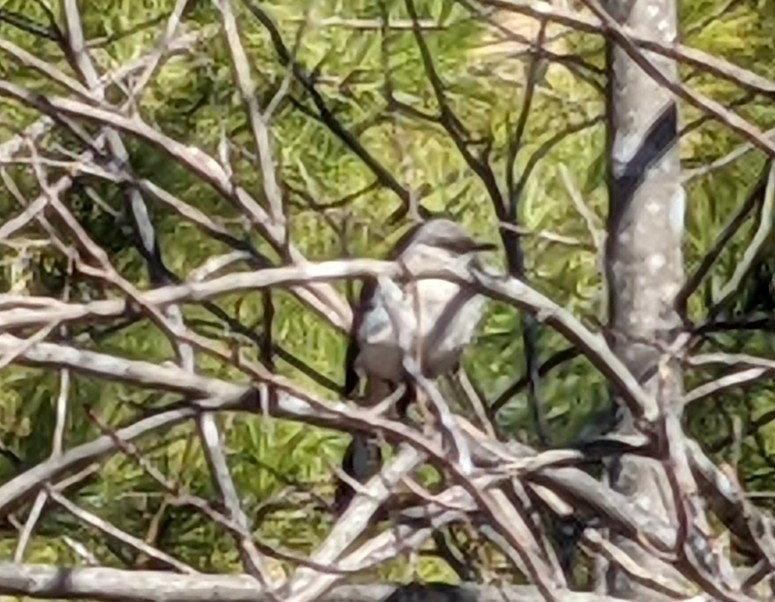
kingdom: Animalia
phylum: Chordata
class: Aves
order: Passeriformes
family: Mimidae
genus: Mimus
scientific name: Mimus polyglottos
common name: Northern mockingbird
